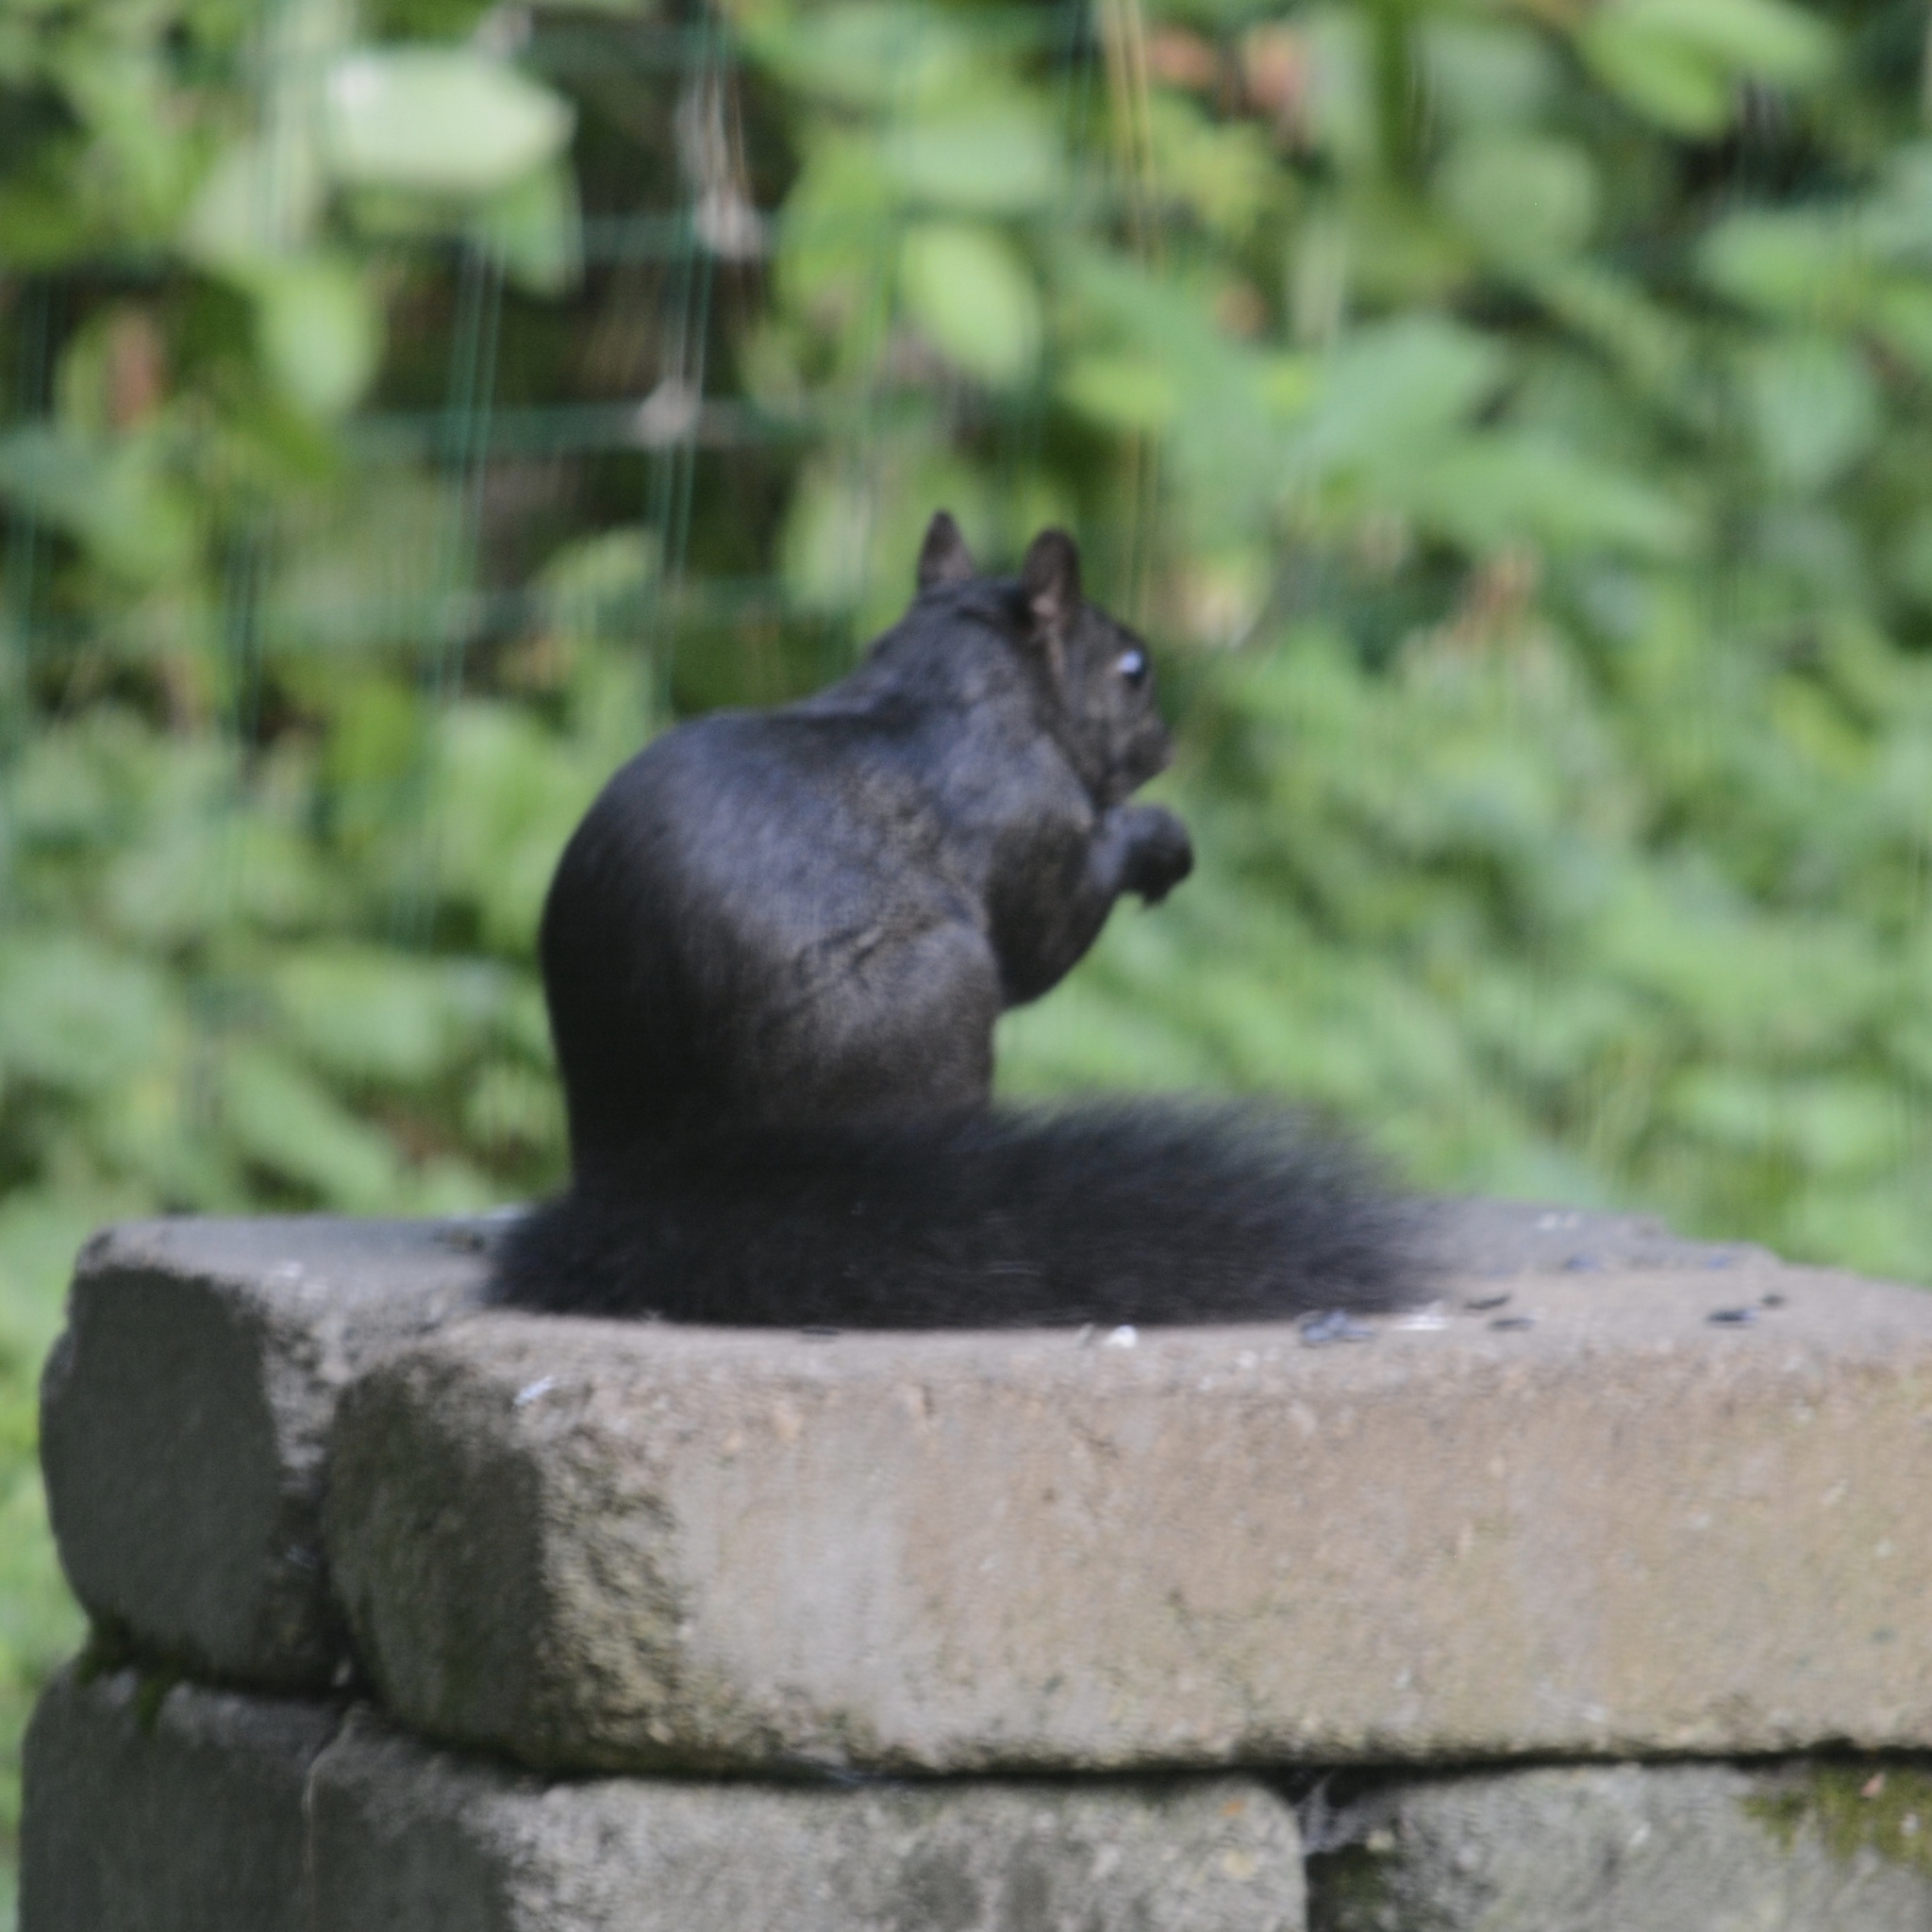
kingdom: Animalia
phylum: Chordata
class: Mammalia
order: Rodentia
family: Sciuridae
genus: Sciurus
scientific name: Sciurus carolinensis
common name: Eastern gray squirrel
